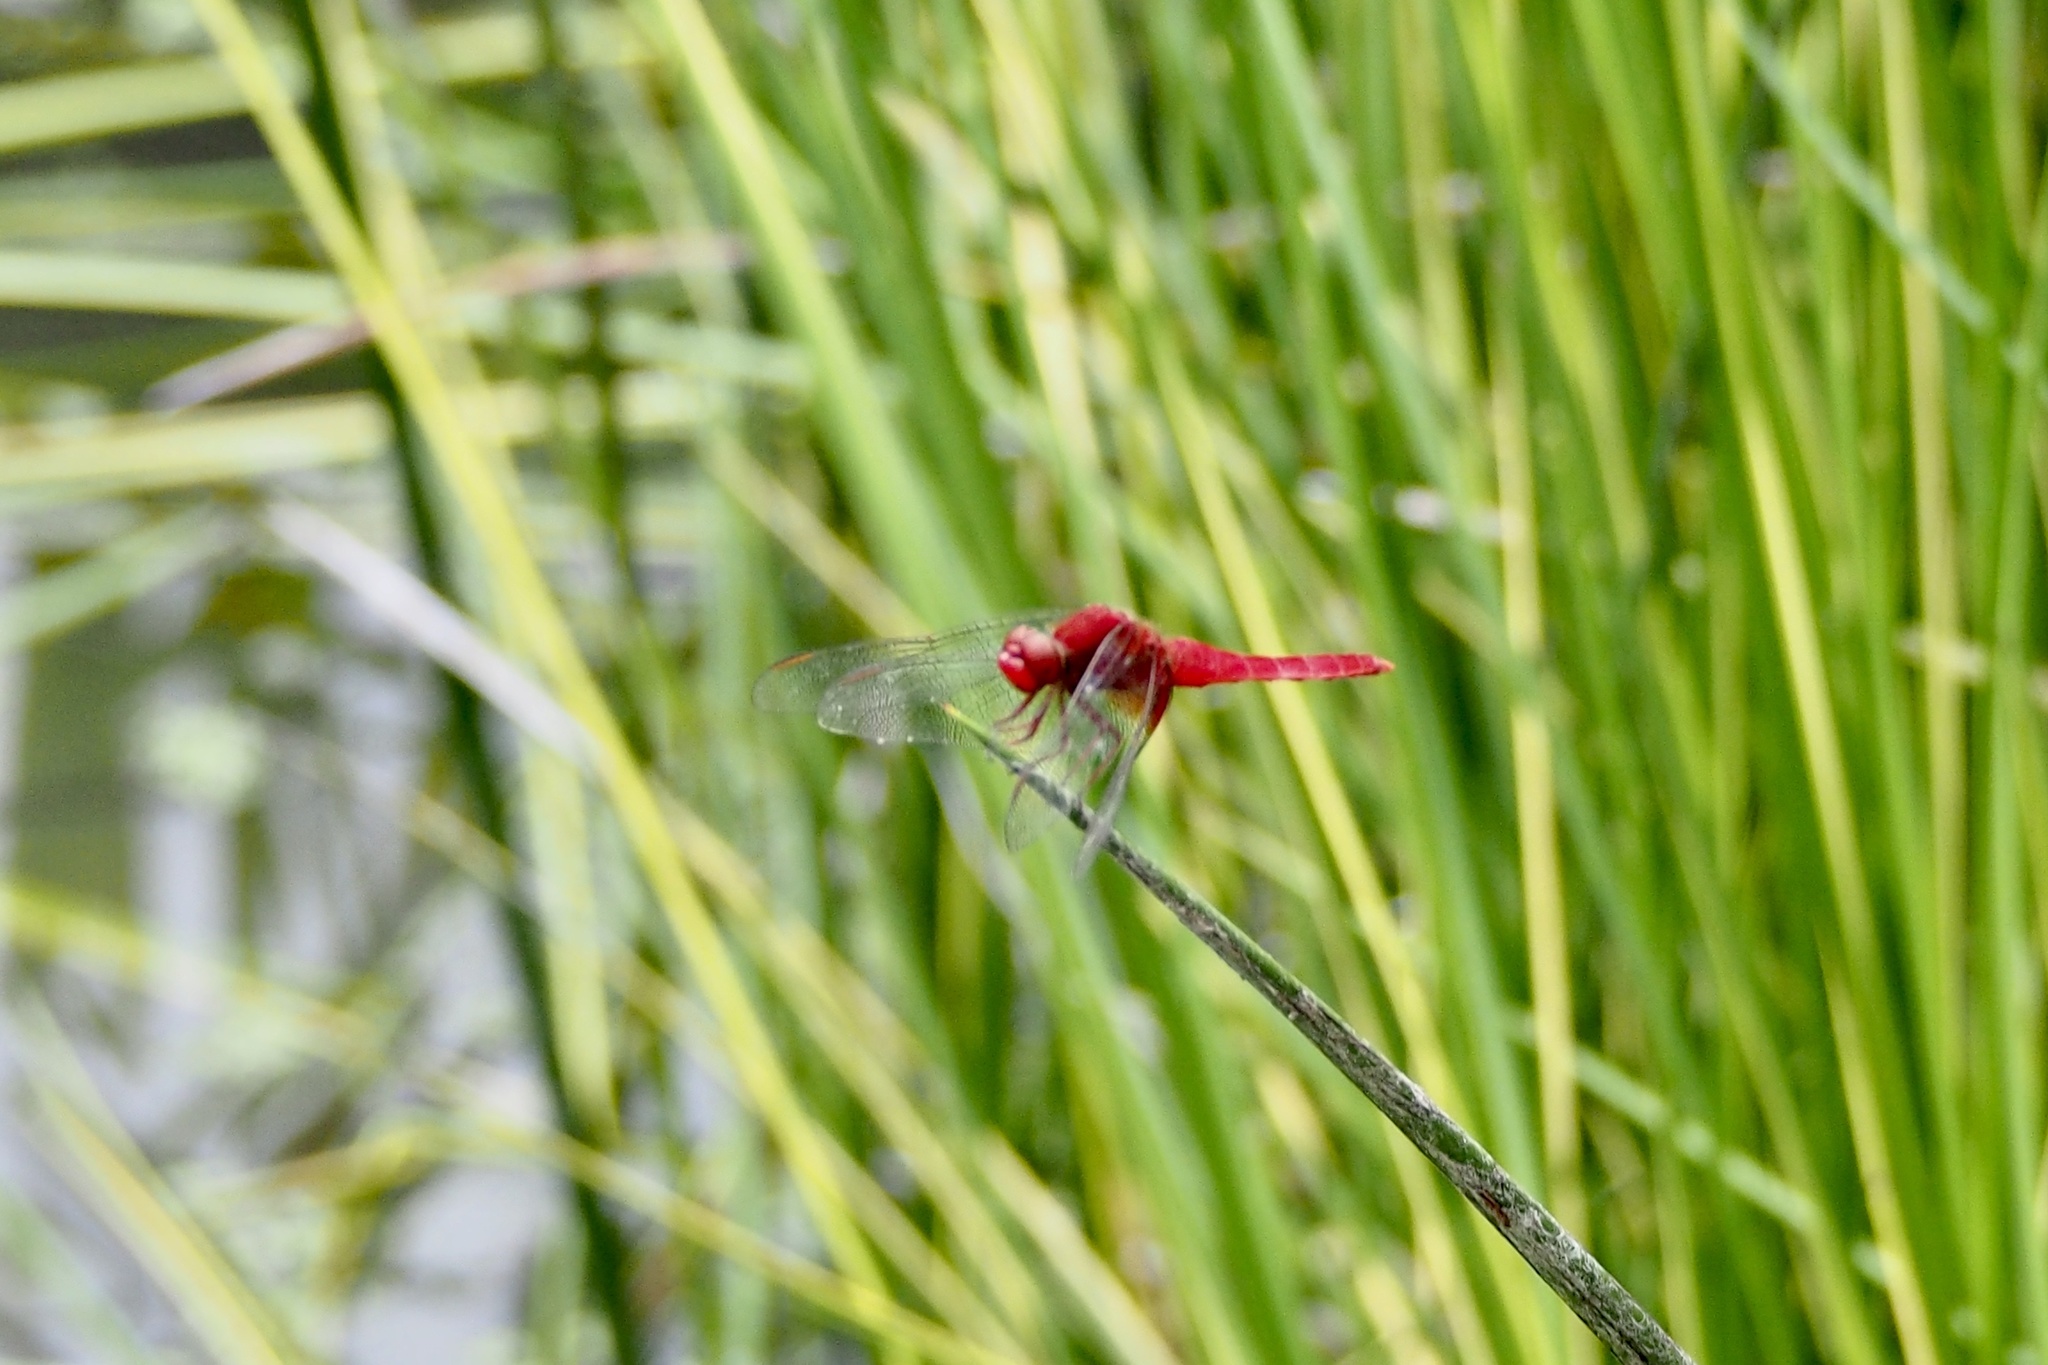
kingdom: Animalia
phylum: Arthropoda
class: Insecta
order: Odonata
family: Libellulidae
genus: Crocothemis
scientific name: Crocothemis servilia
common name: Scarlet skimmer
